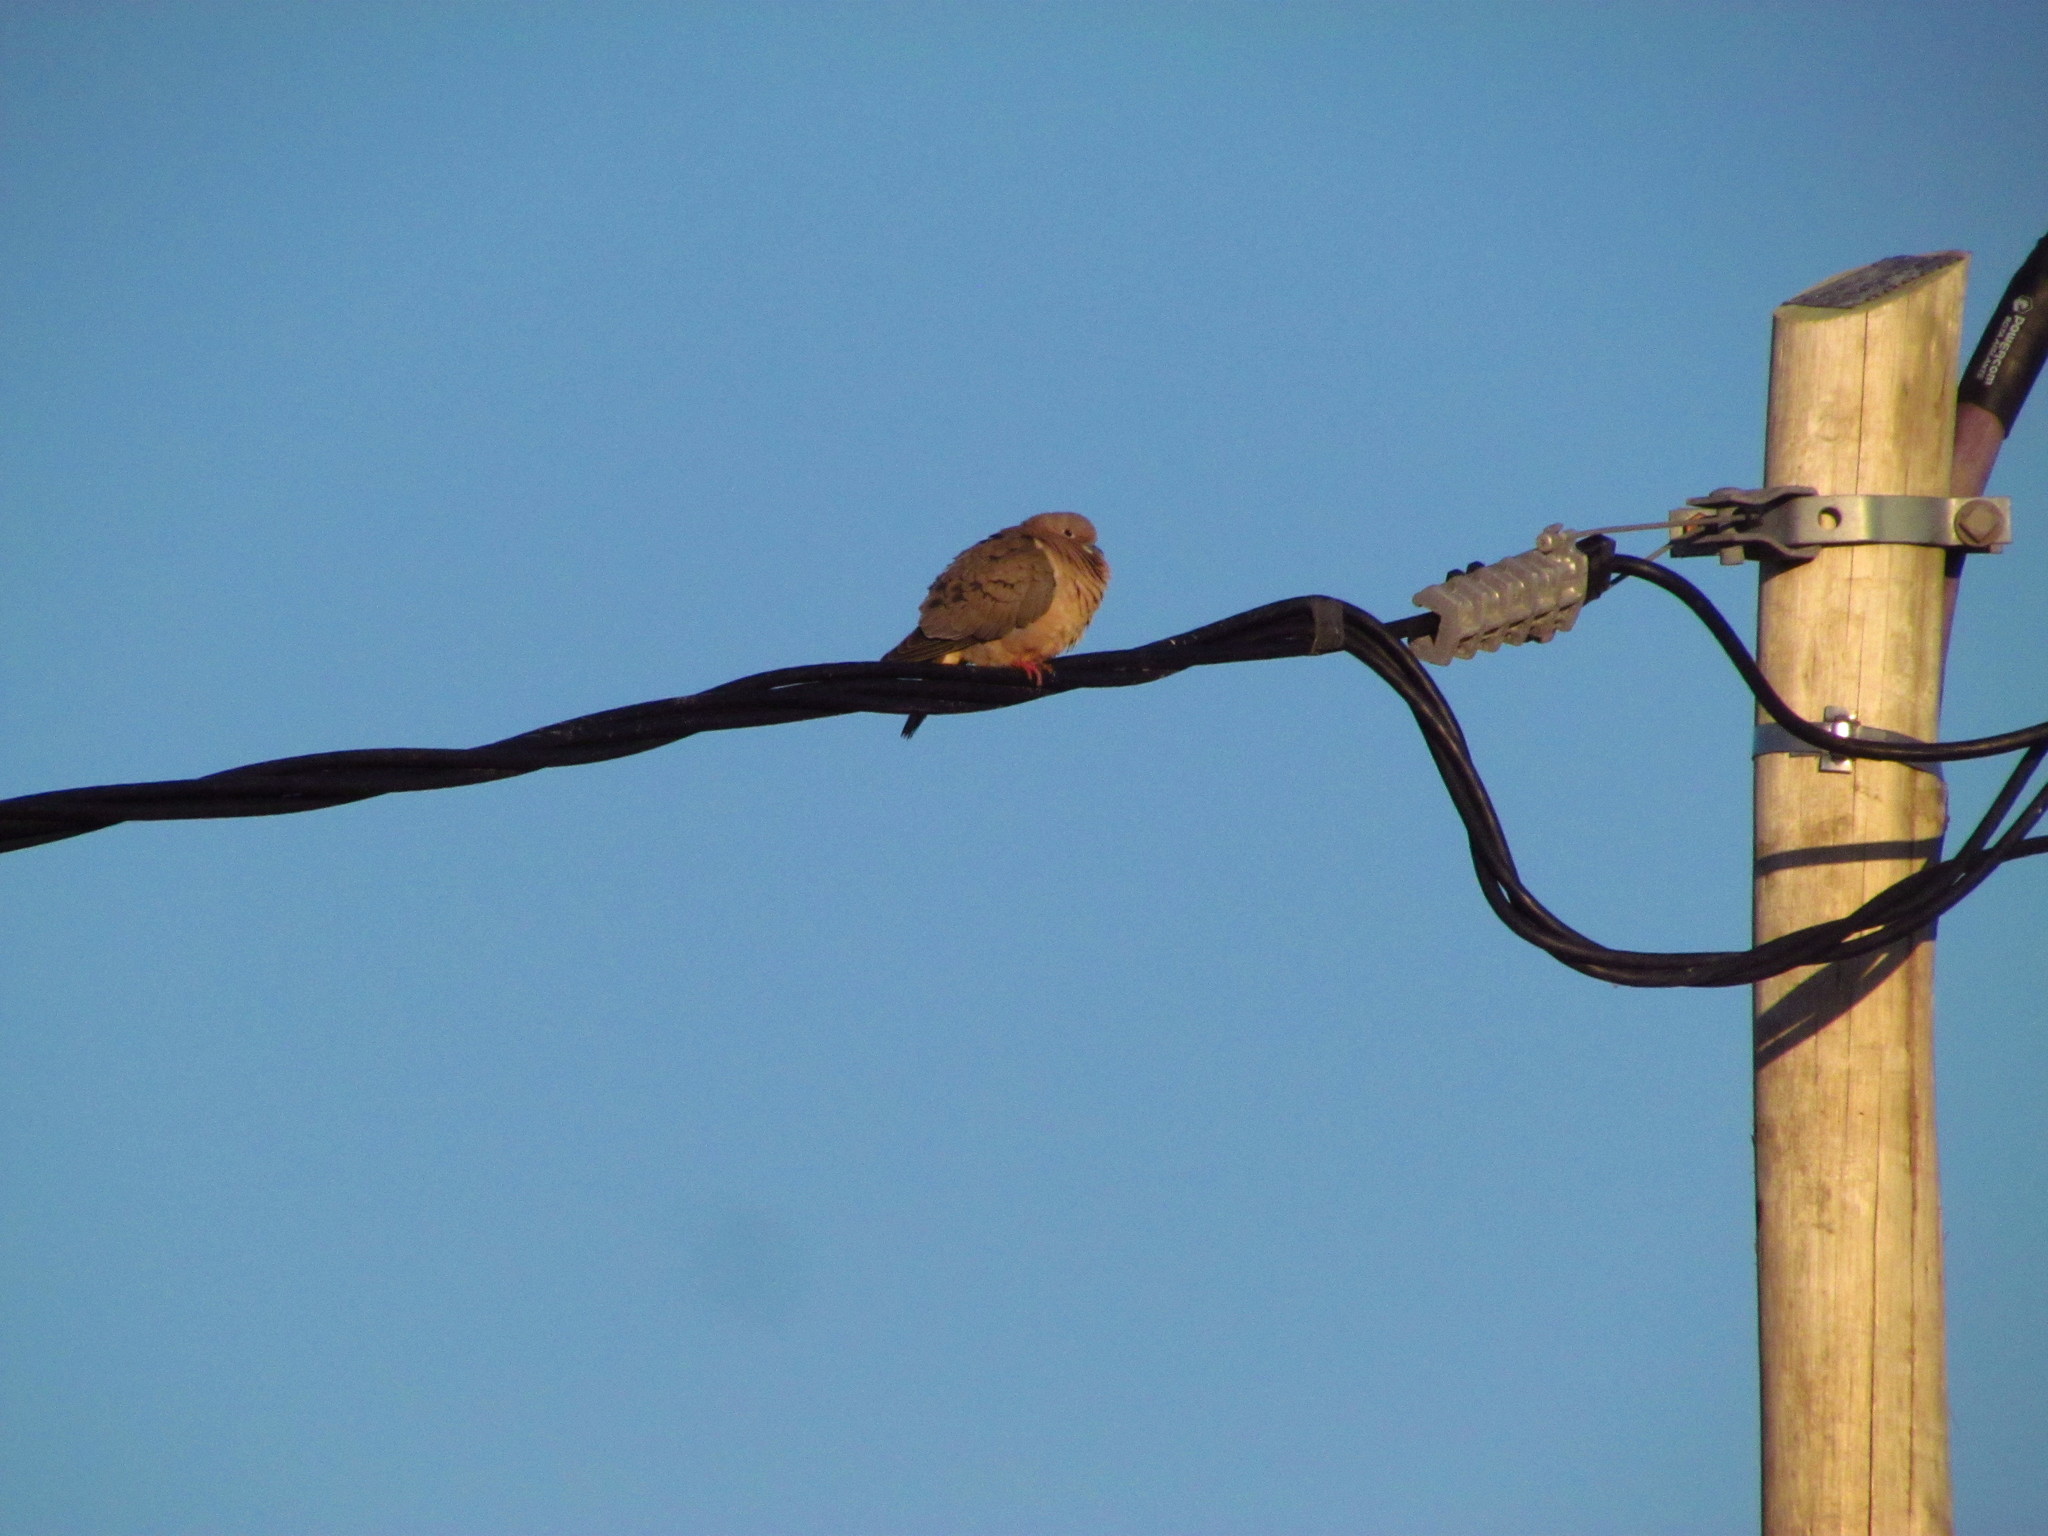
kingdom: Animalia
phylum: Chordata
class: Aves
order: Columbiformes
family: Columbidae
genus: Zenaida
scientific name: Zenaida auriculata
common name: Eared dove
